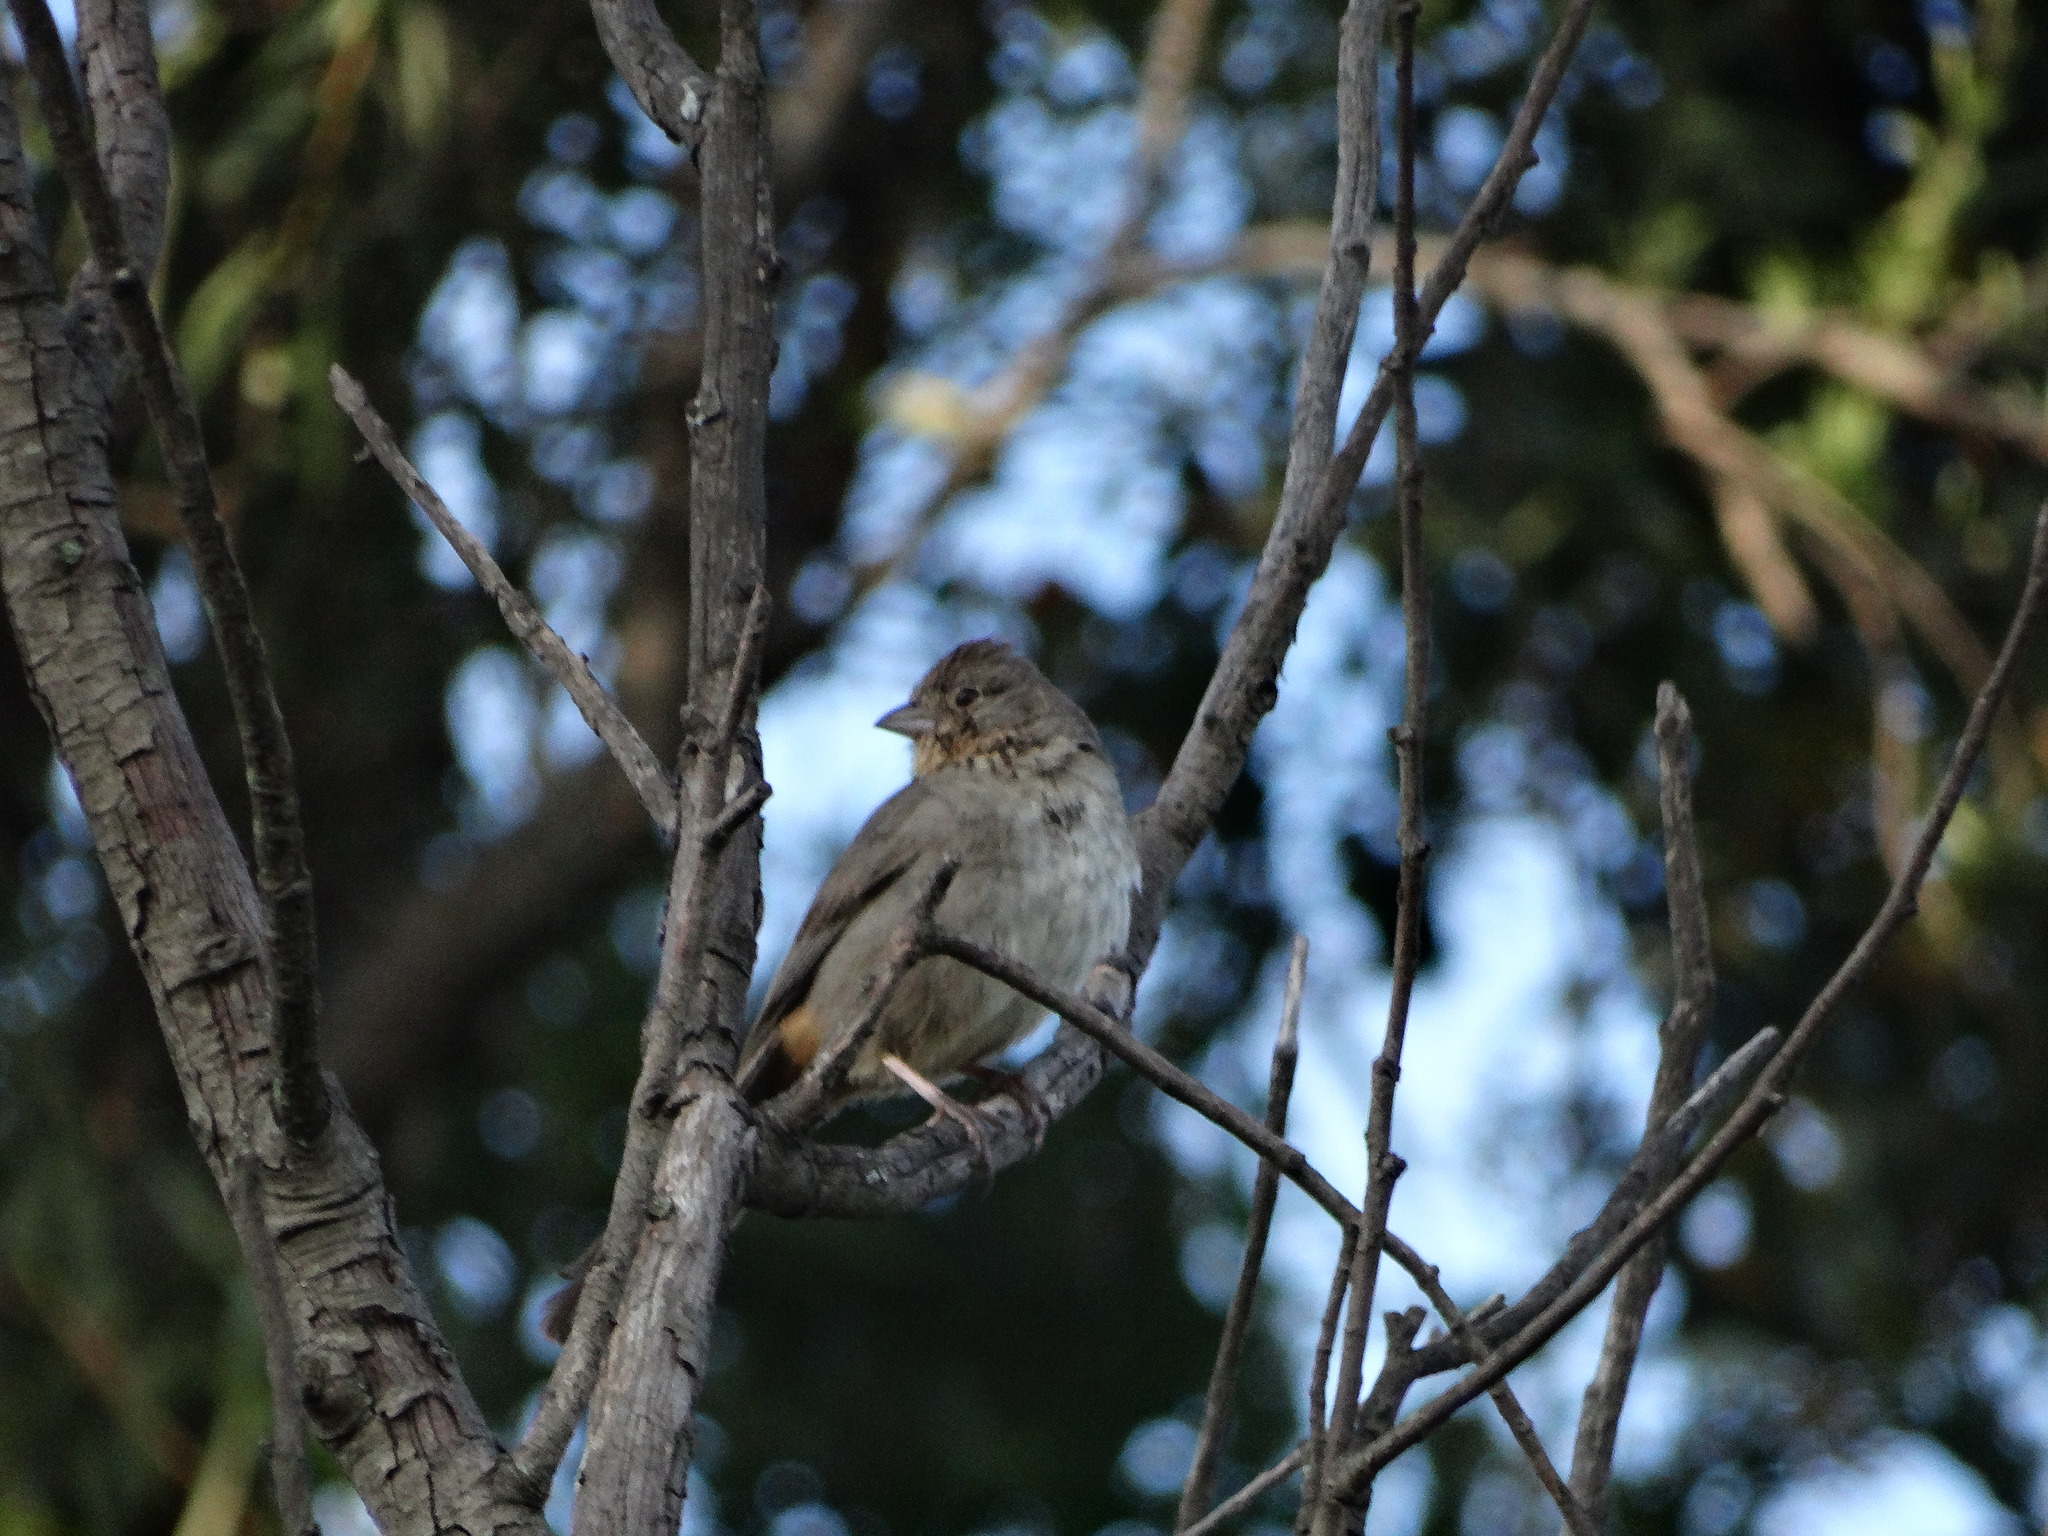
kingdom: Animalia
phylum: Chordata
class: Aves
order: Passeriformes
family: Passerellidae
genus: Melozone
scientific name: Melozone fusca
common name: Canyon towhee
